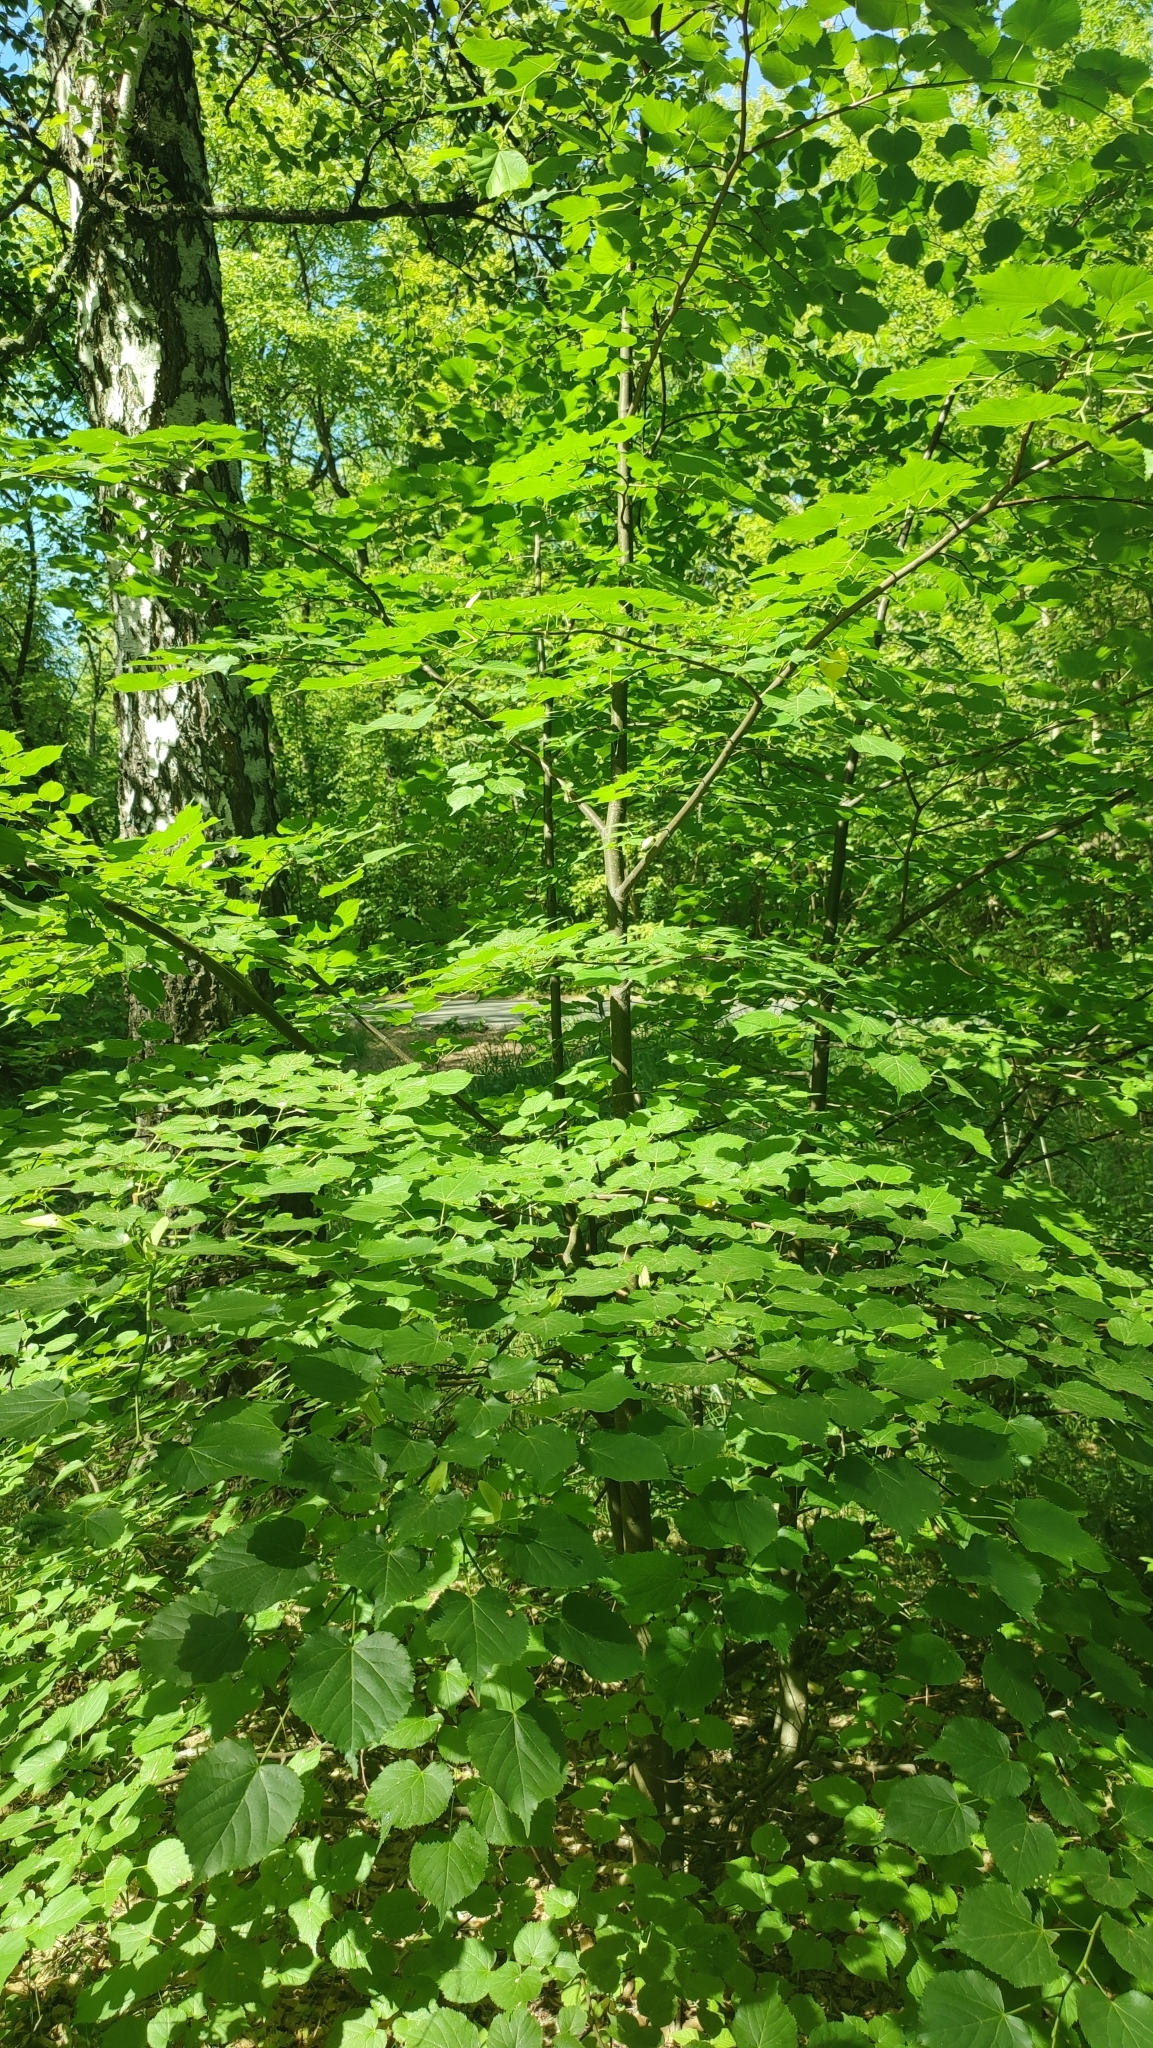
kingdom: Plantae
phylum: Tracheophyta
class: Magnoliopsida
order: Malvales
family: Malvaceae
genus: Tilia
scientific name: Tilia cordata
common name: Small-leaved lime
